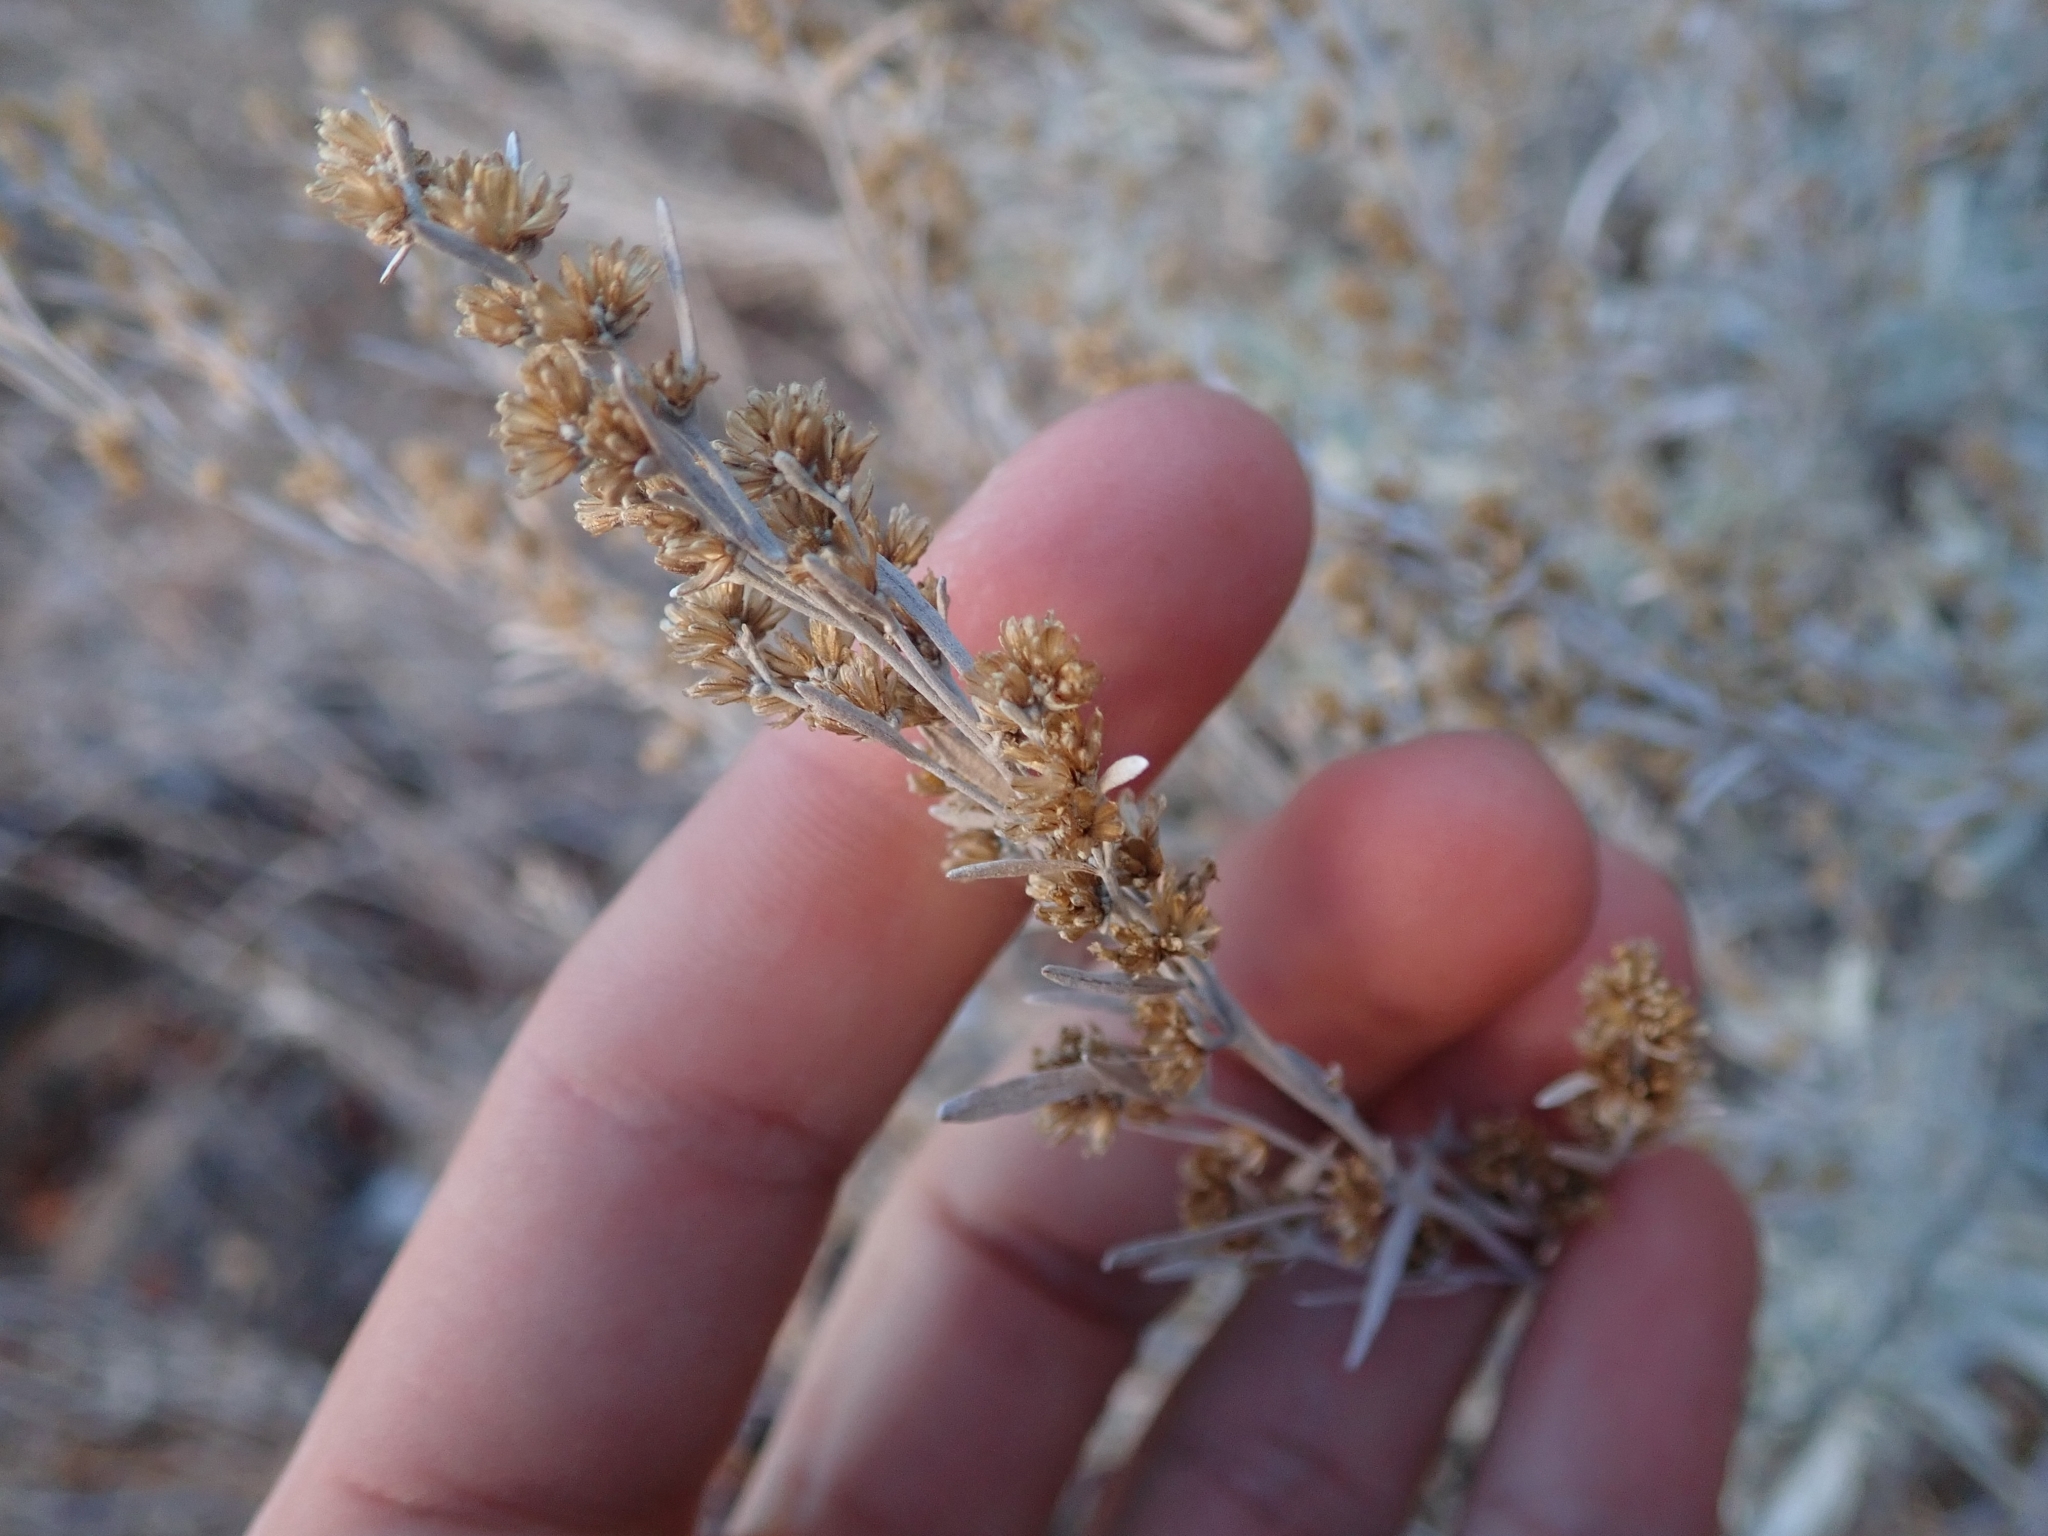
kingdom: Plantae
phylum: Tracheophyta
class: Magnoliopsida
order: Asterales
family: Asteraceae
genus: Artemisia
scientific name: Artemisia tridentata
